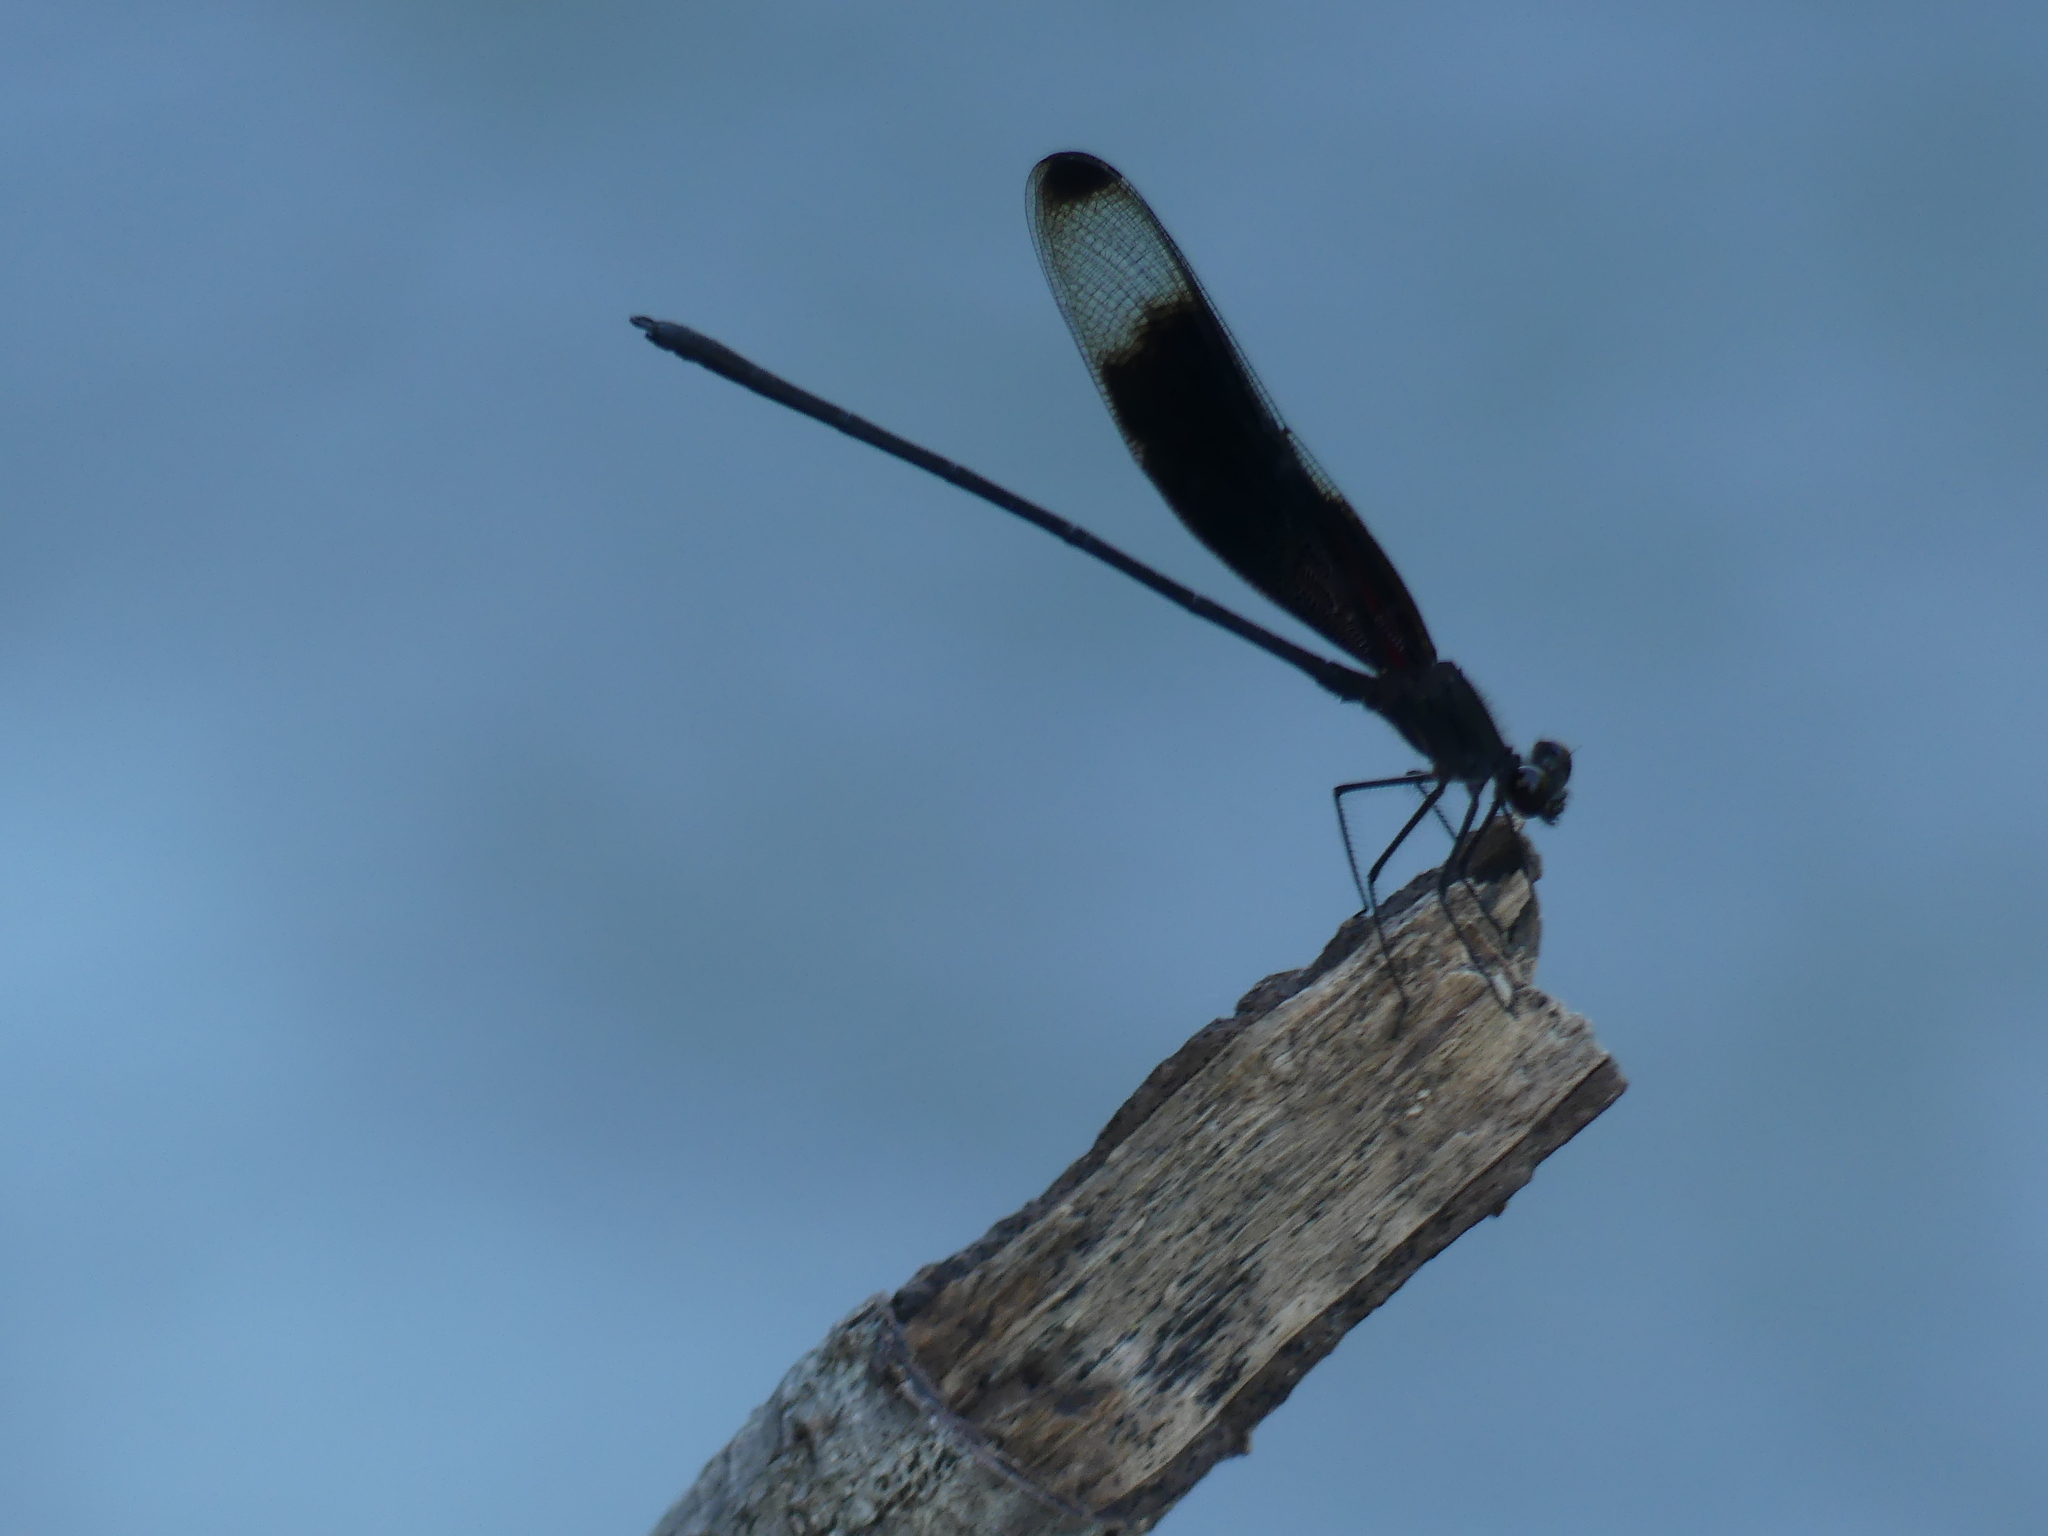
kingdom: Animalia
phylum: Arthropoda
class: Insecta
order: Odonata
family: Calopterygidae
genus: Hetaerina
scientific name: Hetaerina titia
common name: Smoky rubyspot
